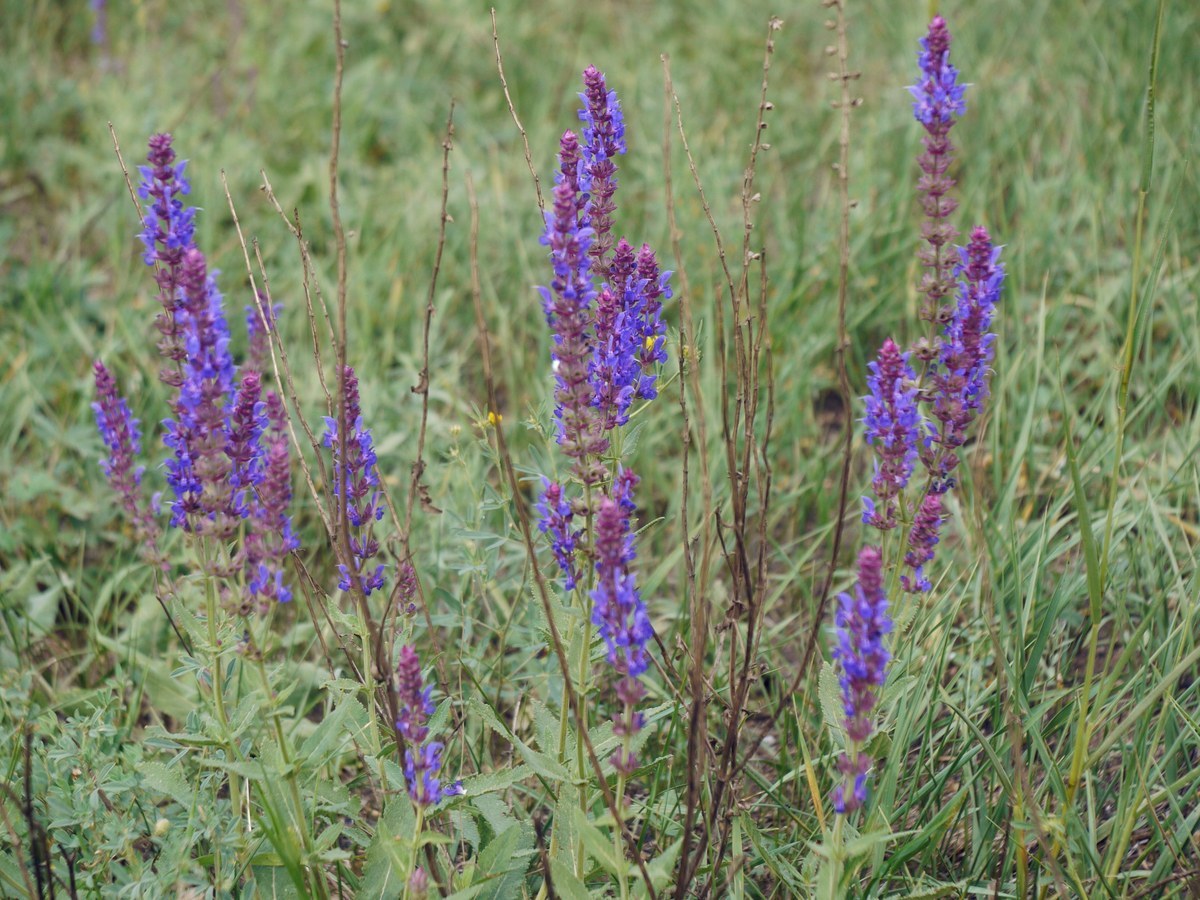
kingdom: Plantae
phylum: Tracheophyta
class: Magnoliopsida
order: Lamiales
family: Lamiaceae
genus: Salvia
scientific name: Salvia nemorosa
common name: Balkan clary
